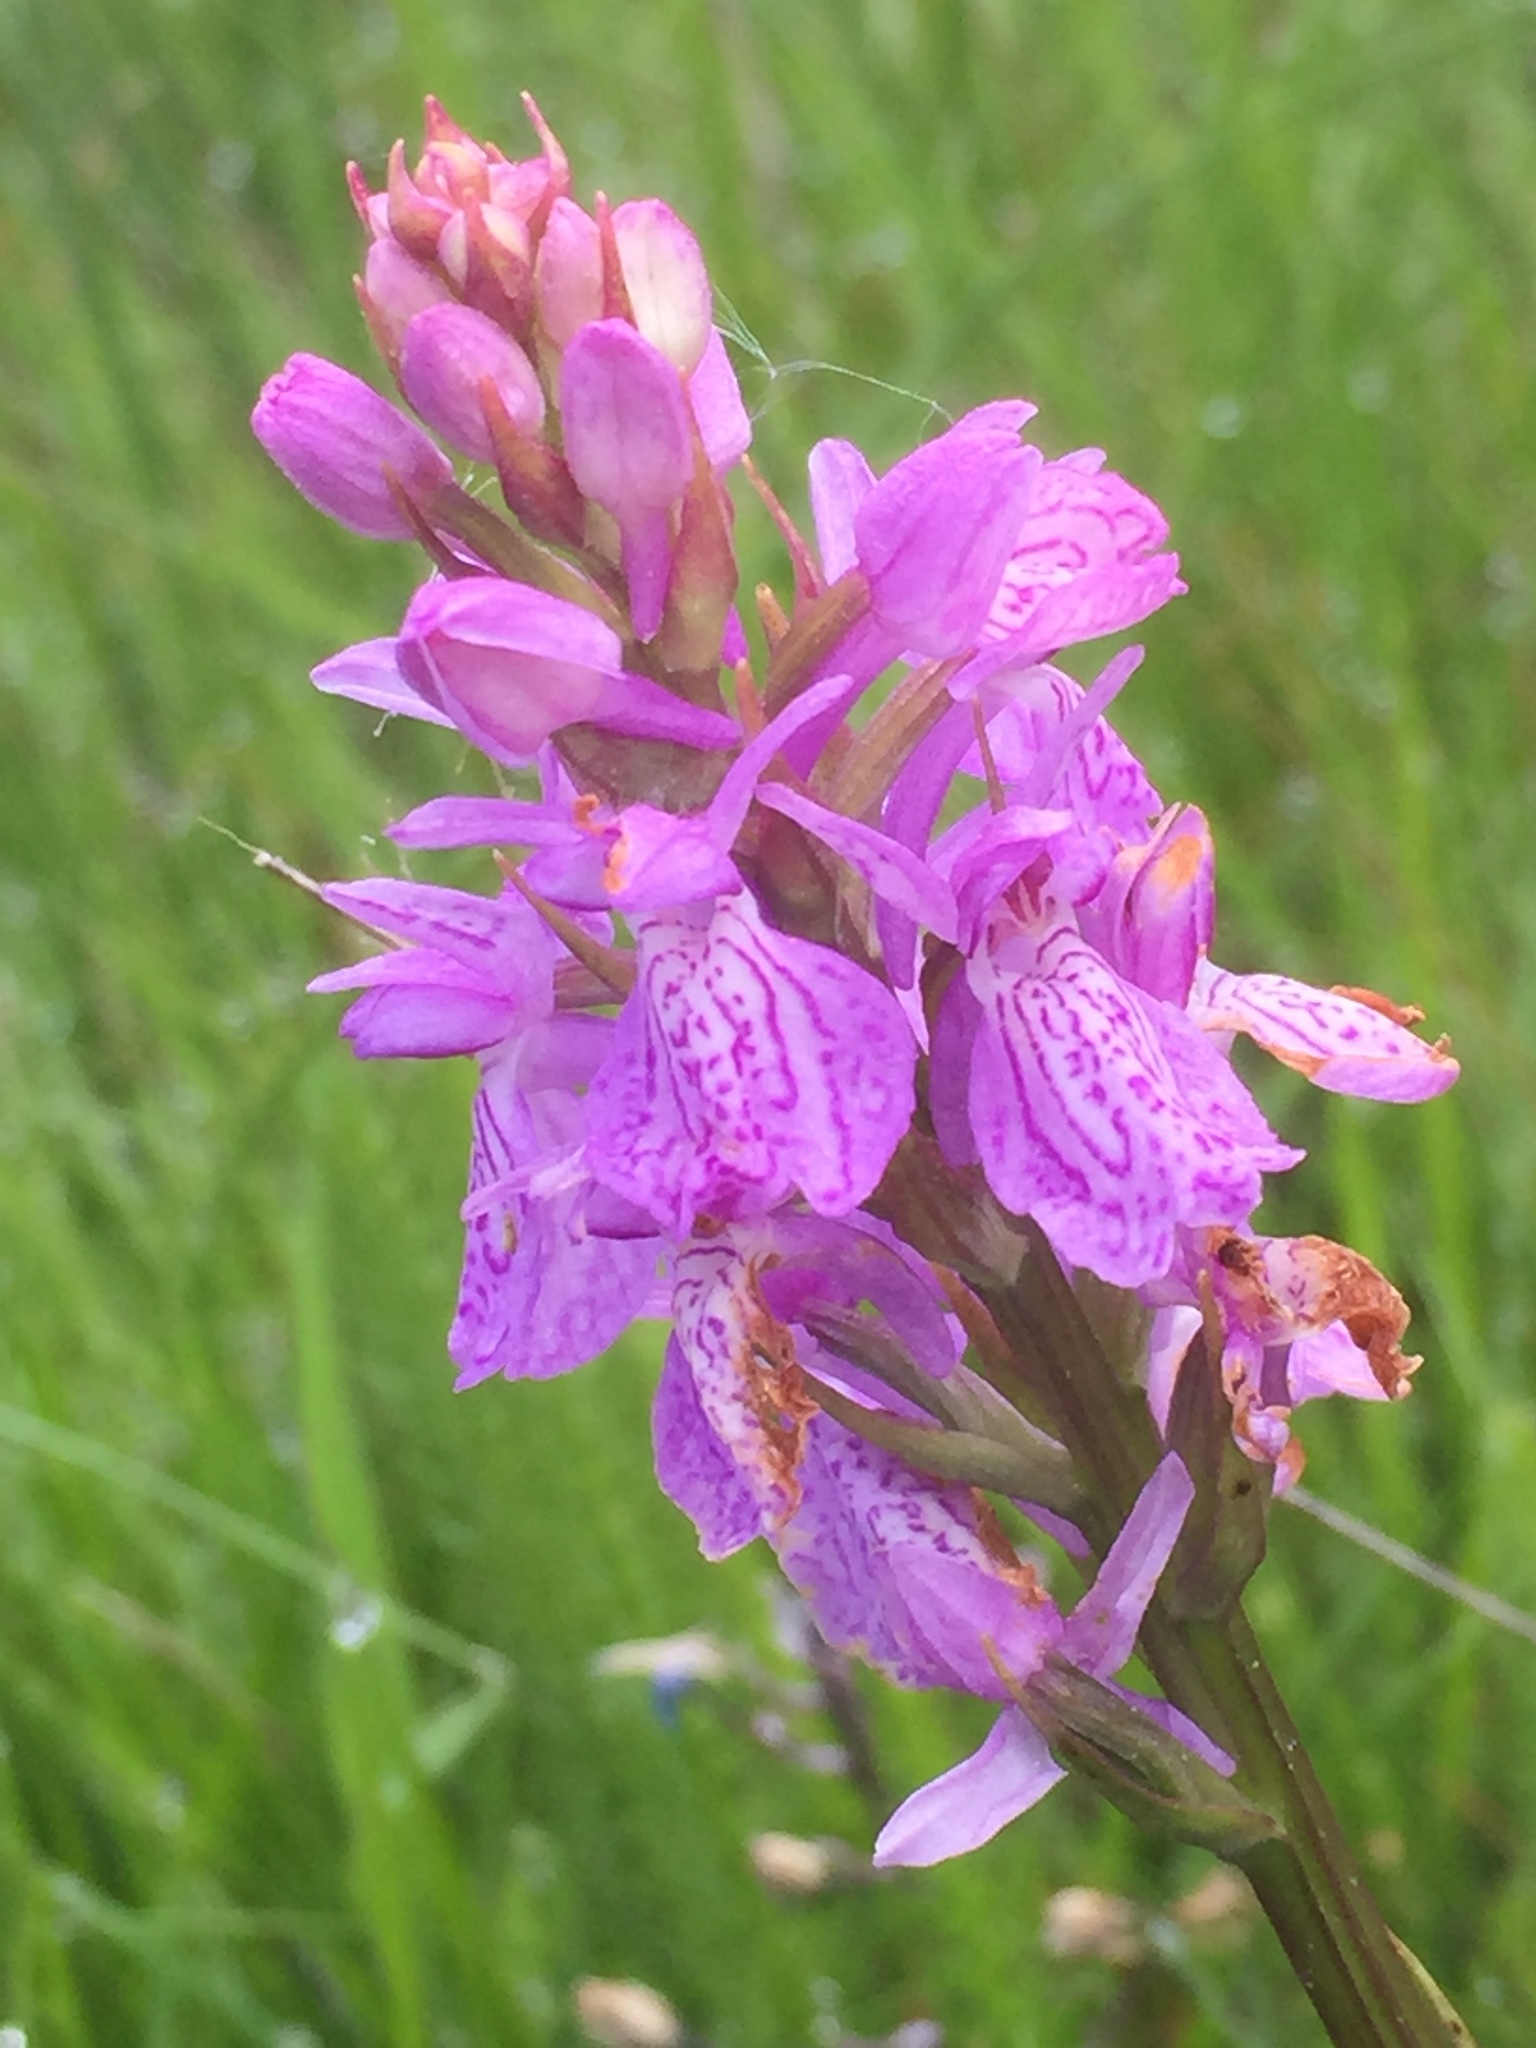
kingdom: Plantae
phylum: Tracheophyta
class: Liliopsida
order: Asparagales
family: Orchidaceae
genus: Dactylorhiza
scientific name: Dactylorhiza maculata
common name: Heath spotted-orchid
